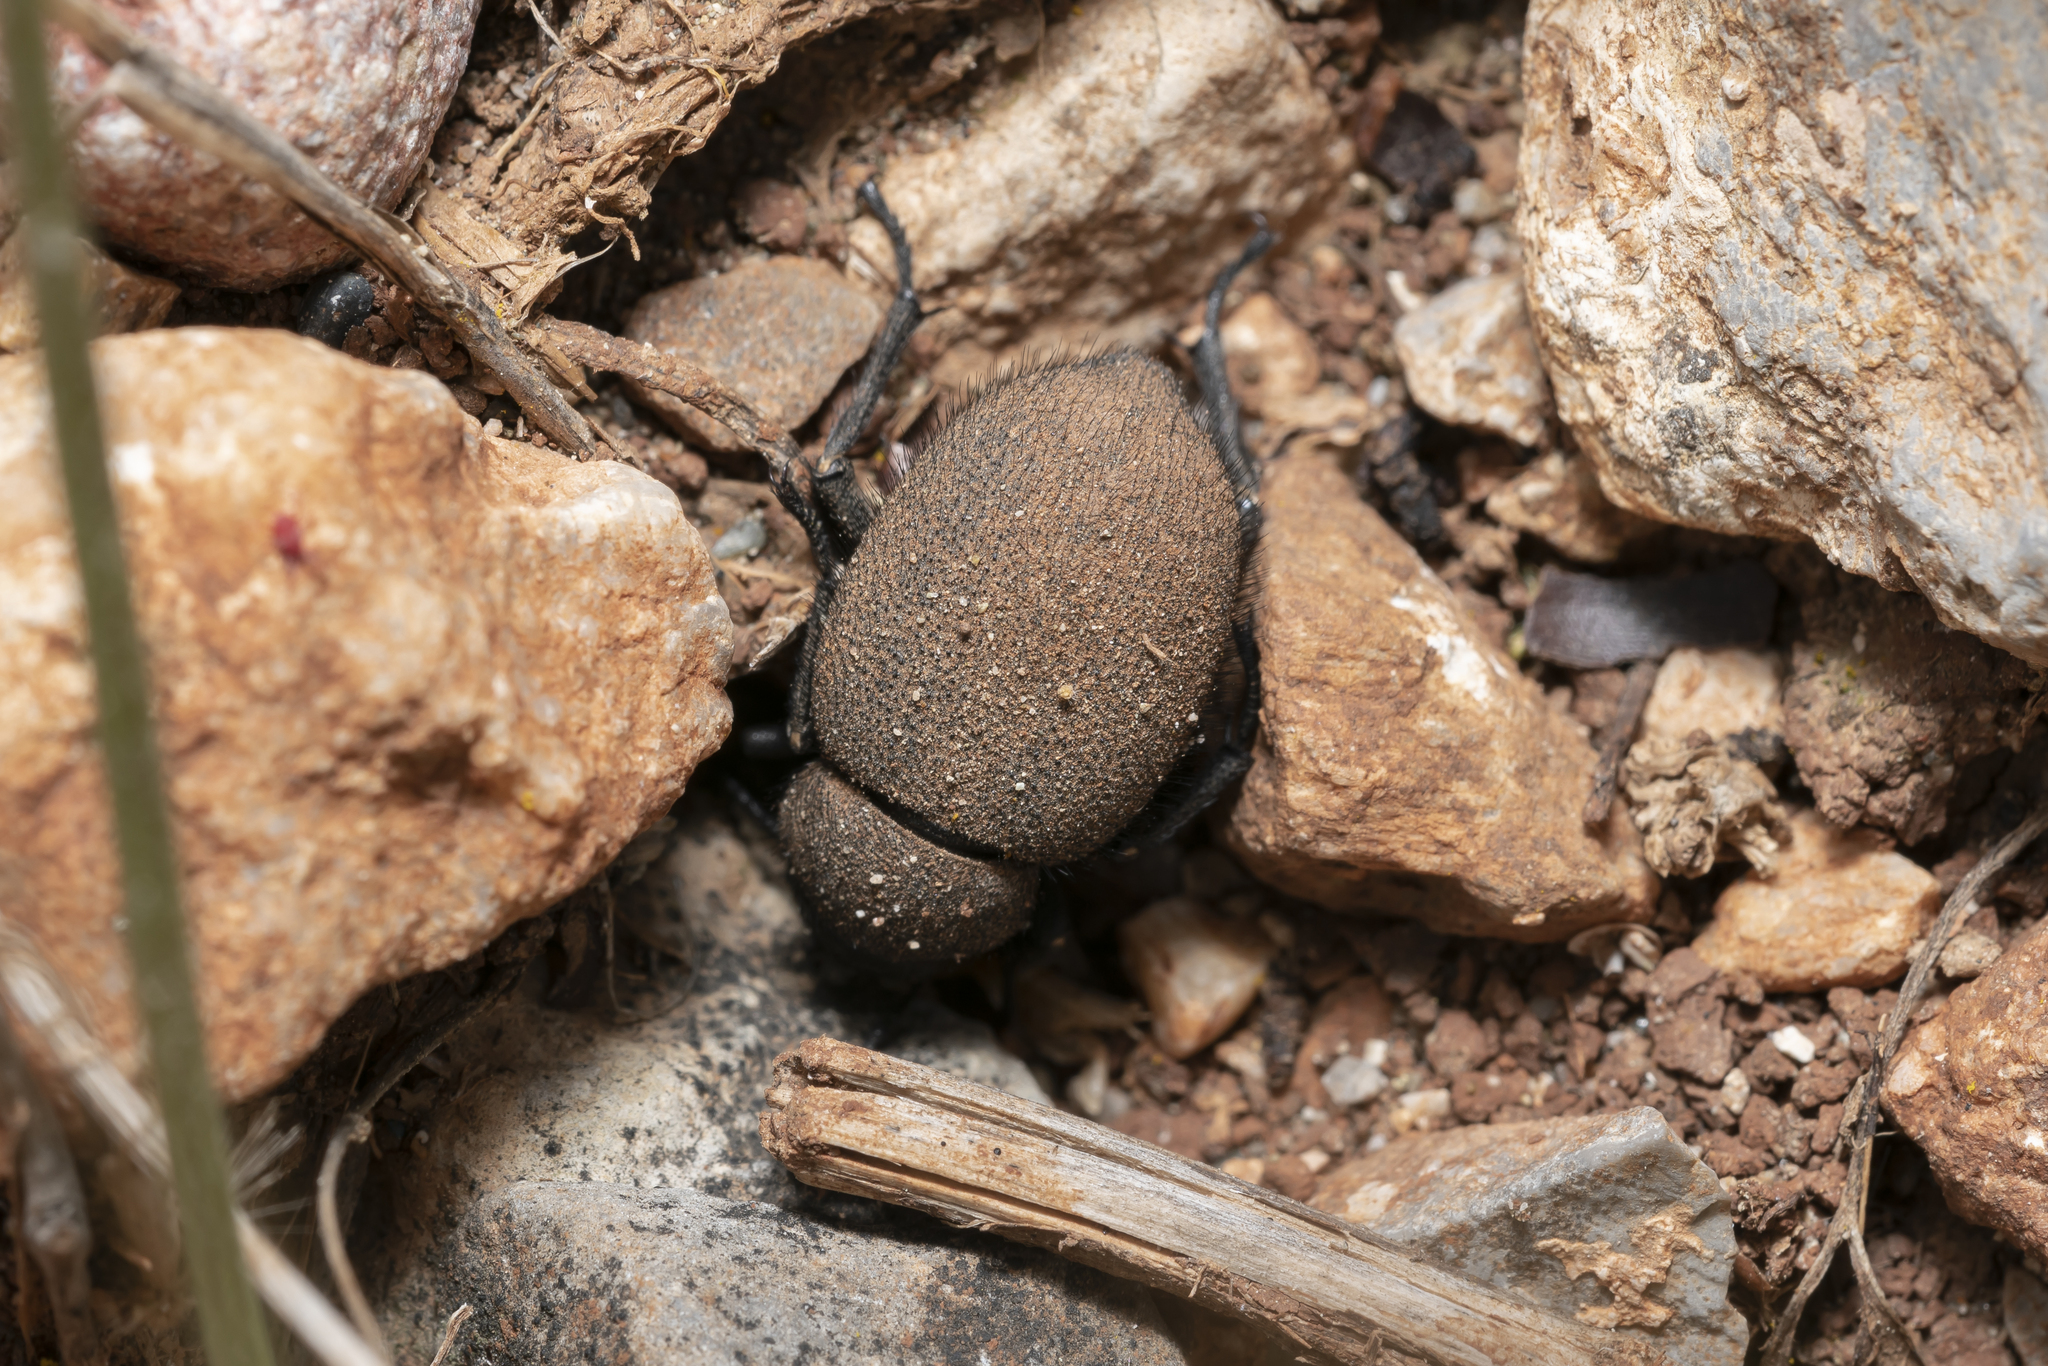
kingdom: Animalia
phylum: Arthropoda
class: Insecta
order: Coleoptera
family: Tenebrionidae
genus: Pachyscelis
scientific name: Pachyscelis villosa
